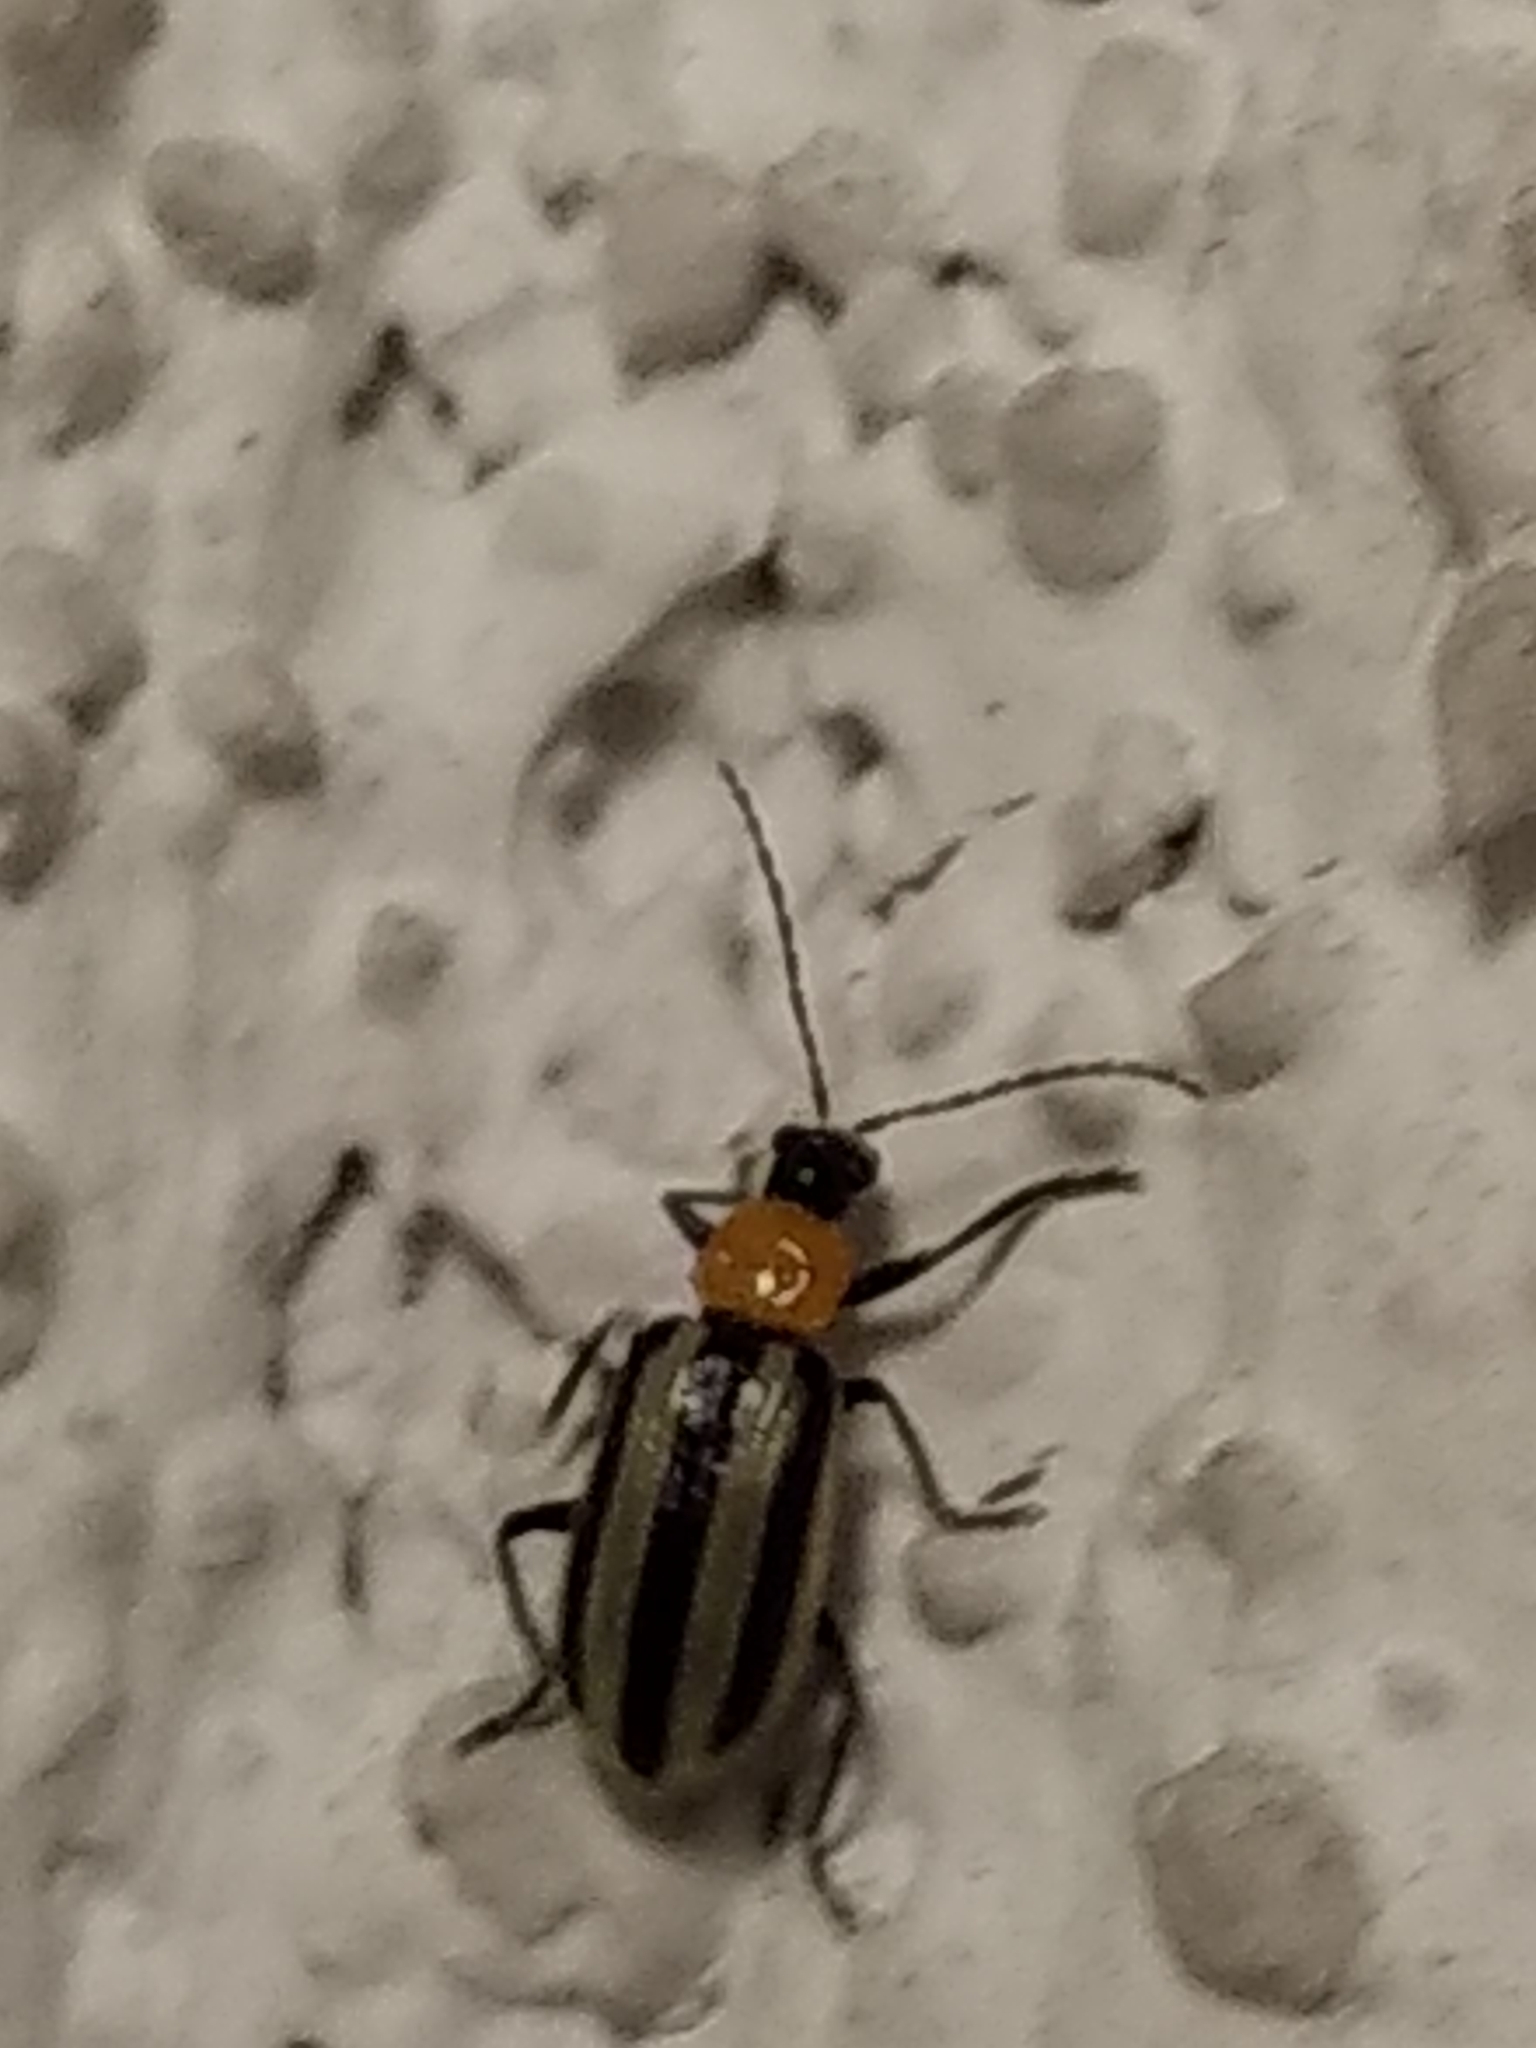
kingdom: Animalia
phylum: Arthropoda
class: Insecta
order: Coleoptera
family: Chrysomelidae
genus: Acalymma
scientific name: Acalymma trivittatum
